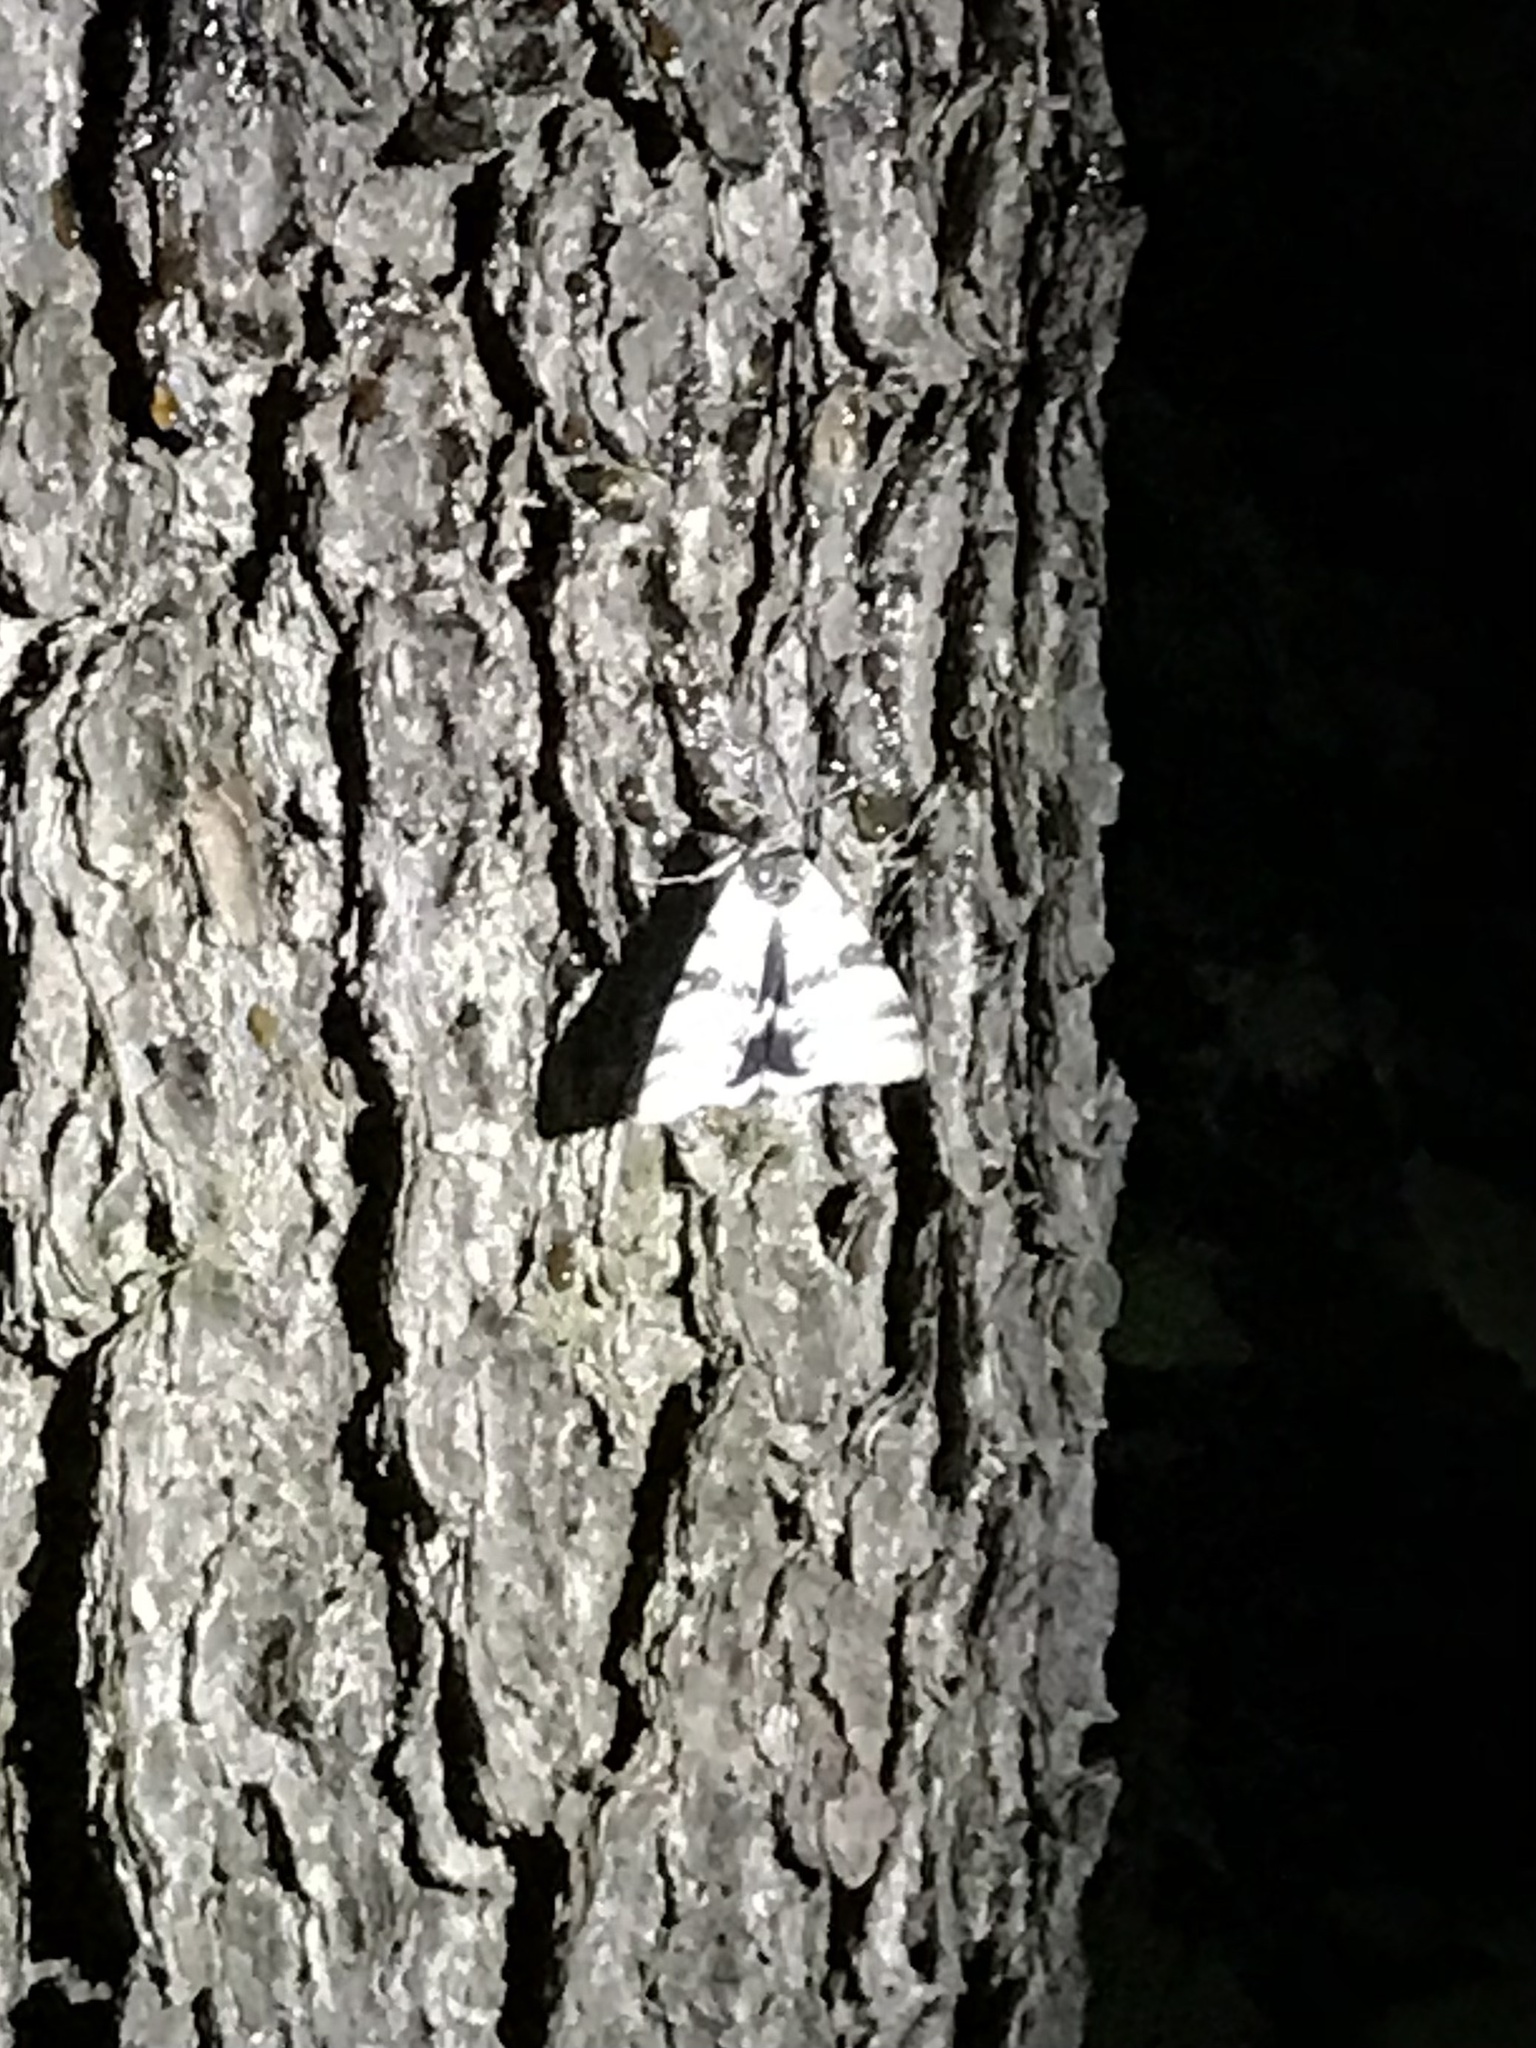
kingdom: Animalia
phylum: Arthropoda
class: Insecta
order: Lepidoptera
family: Erebidae
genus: Catocala
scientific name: Catocala relicta
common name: White underwing
